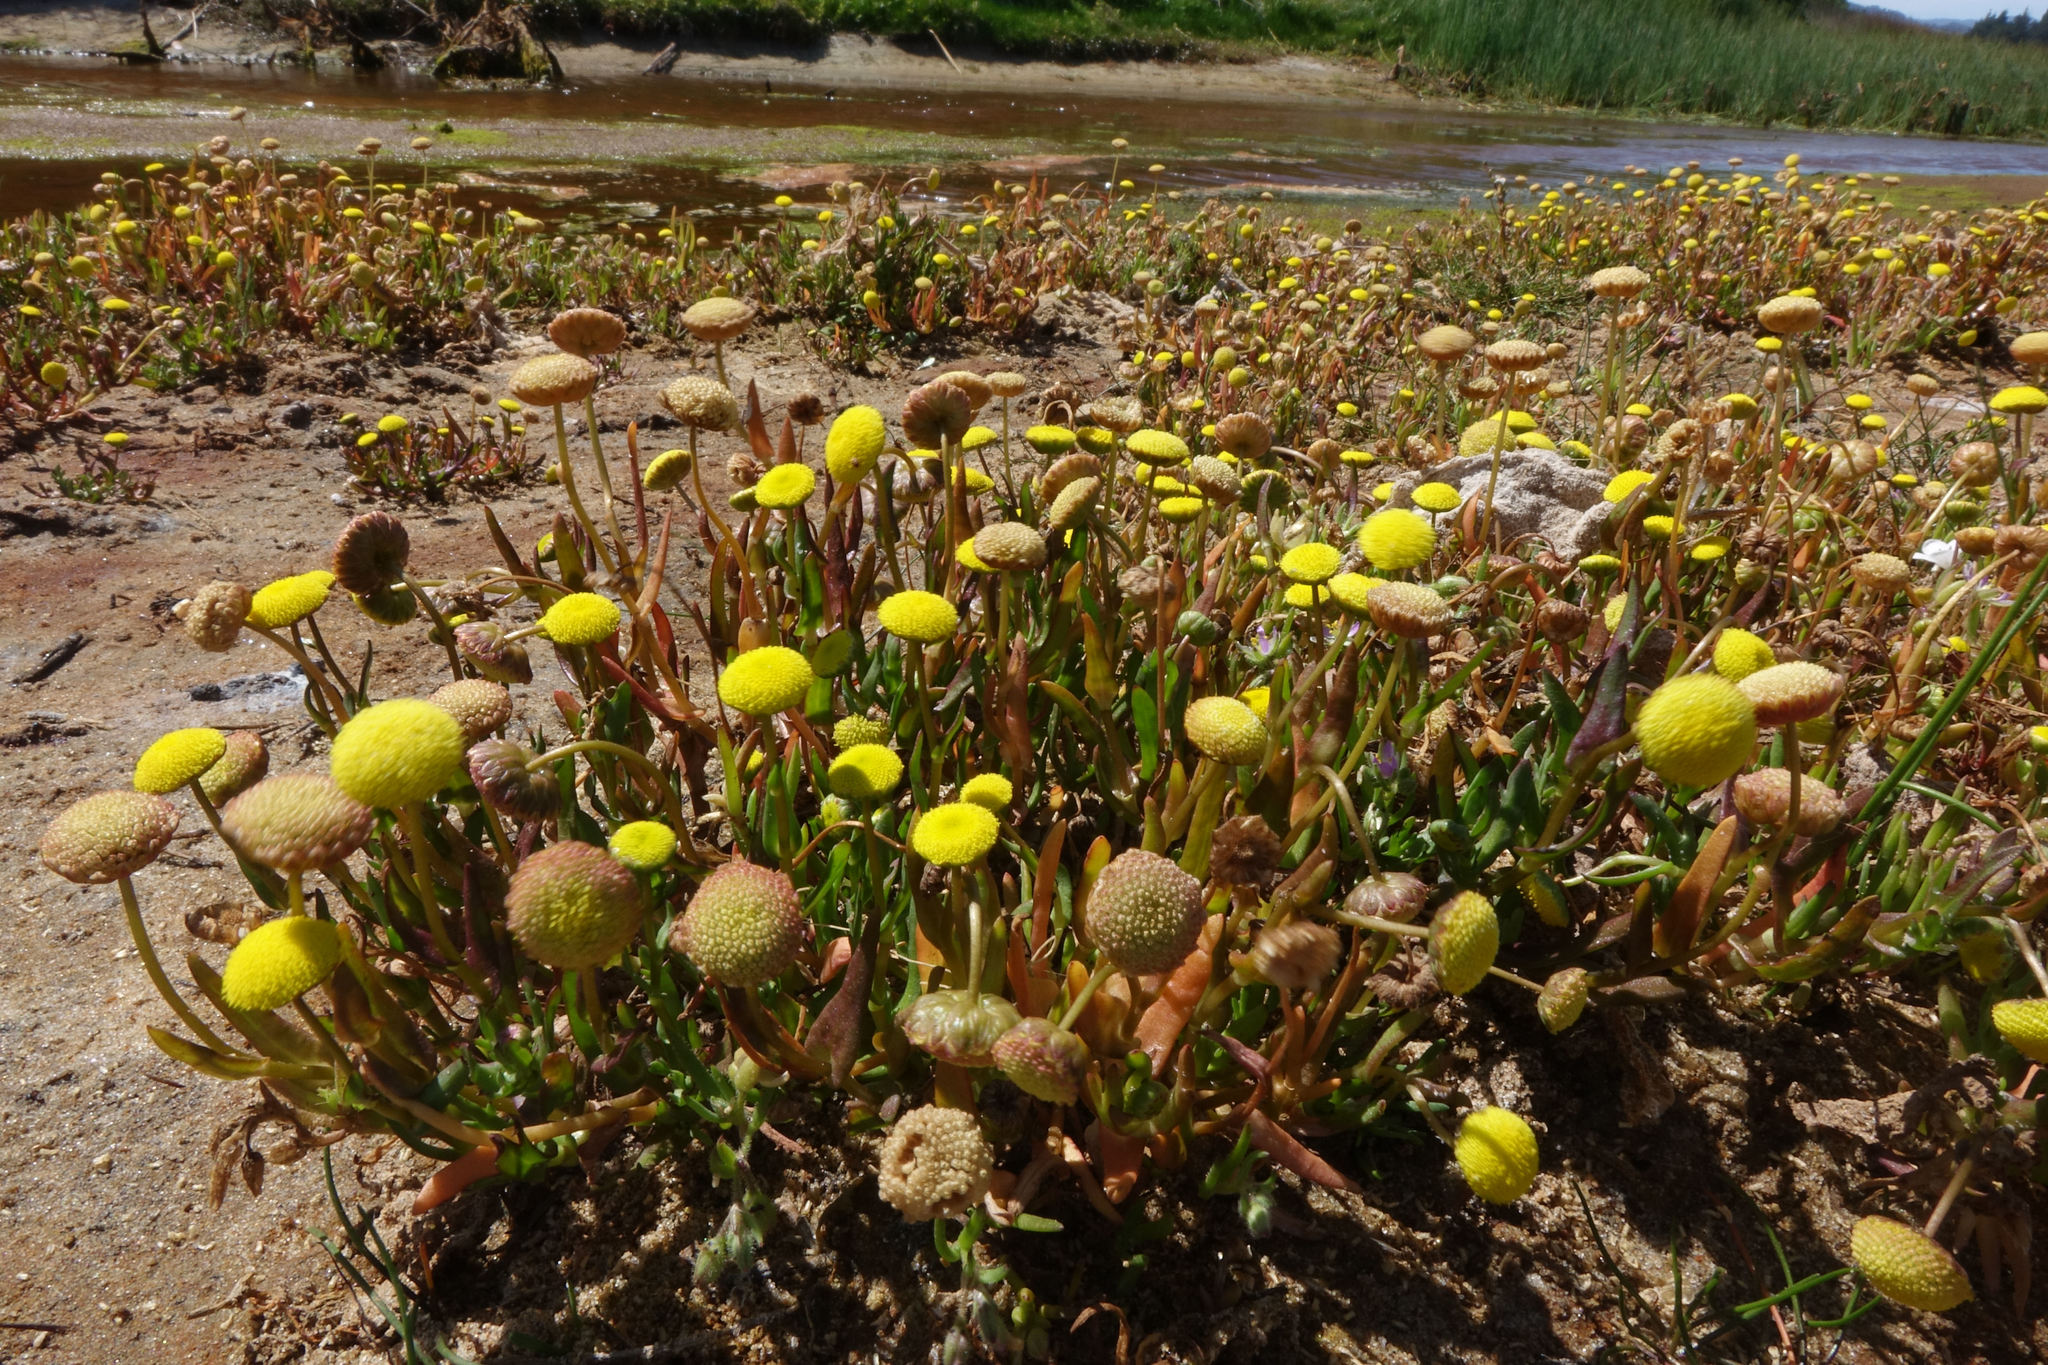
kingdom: Plantae
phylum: Tracheophyta
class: Magnoliopsida
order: Asterales
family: Asteraceae
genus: Cotula
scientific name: Cotula coronopifolia
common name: Buttonweed
